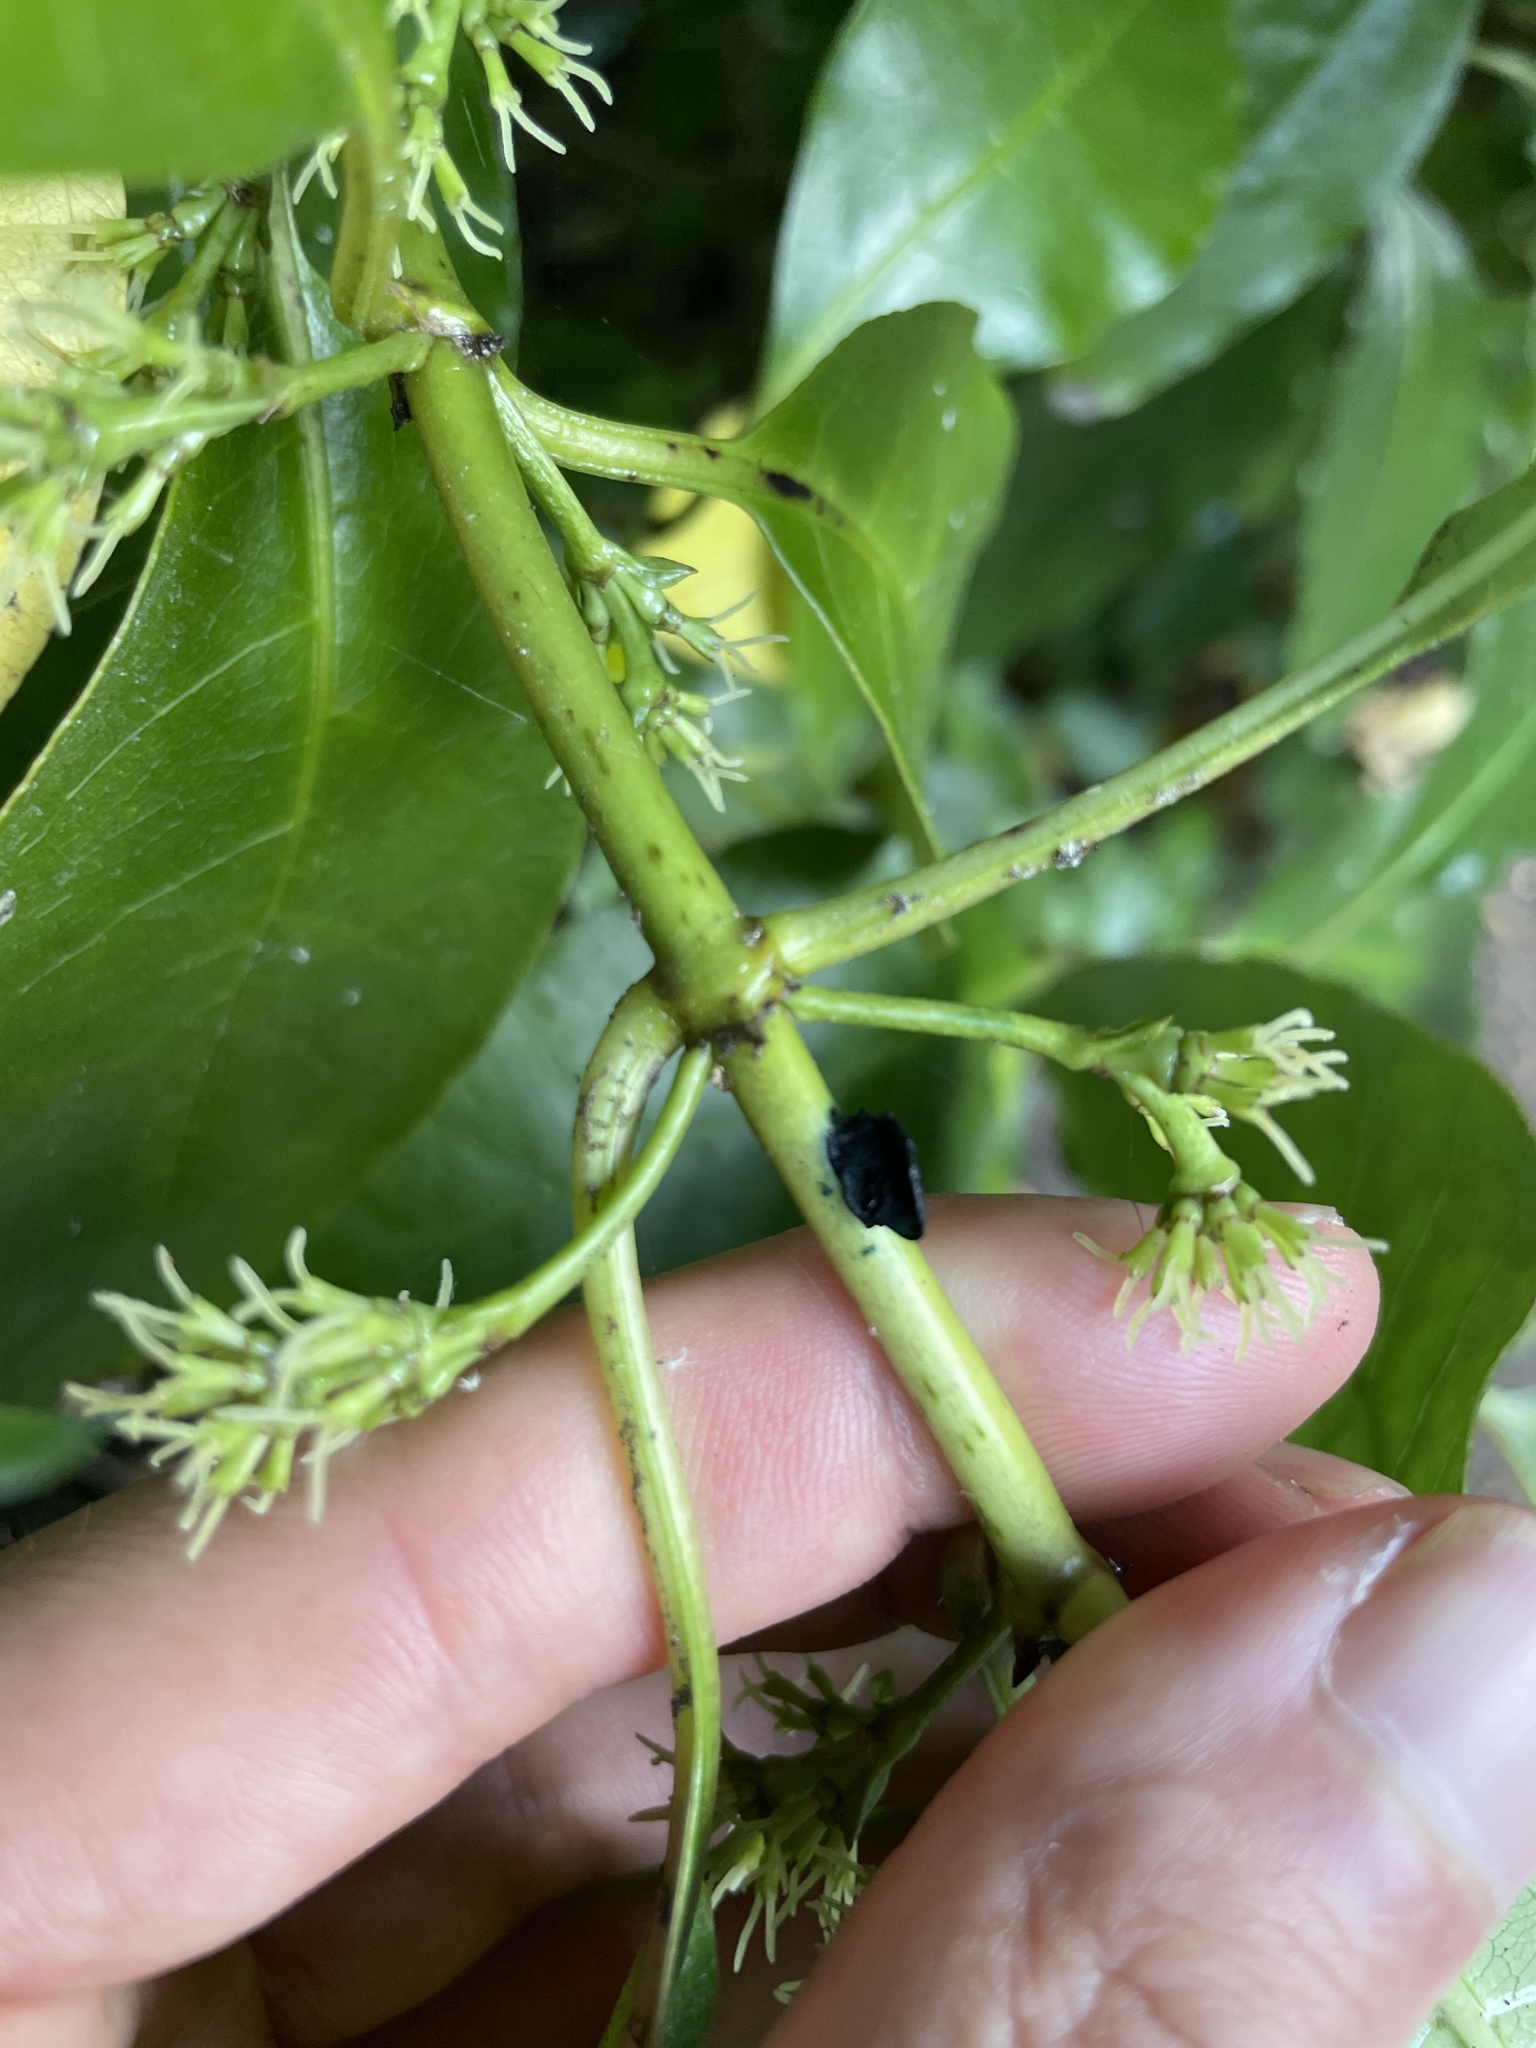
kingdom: Plantae
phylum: Tracheophyta
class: Magnoliopsida
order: Gentianales
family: Rubiaceae
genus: Coprosma
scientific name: Coprosma autumnalis
